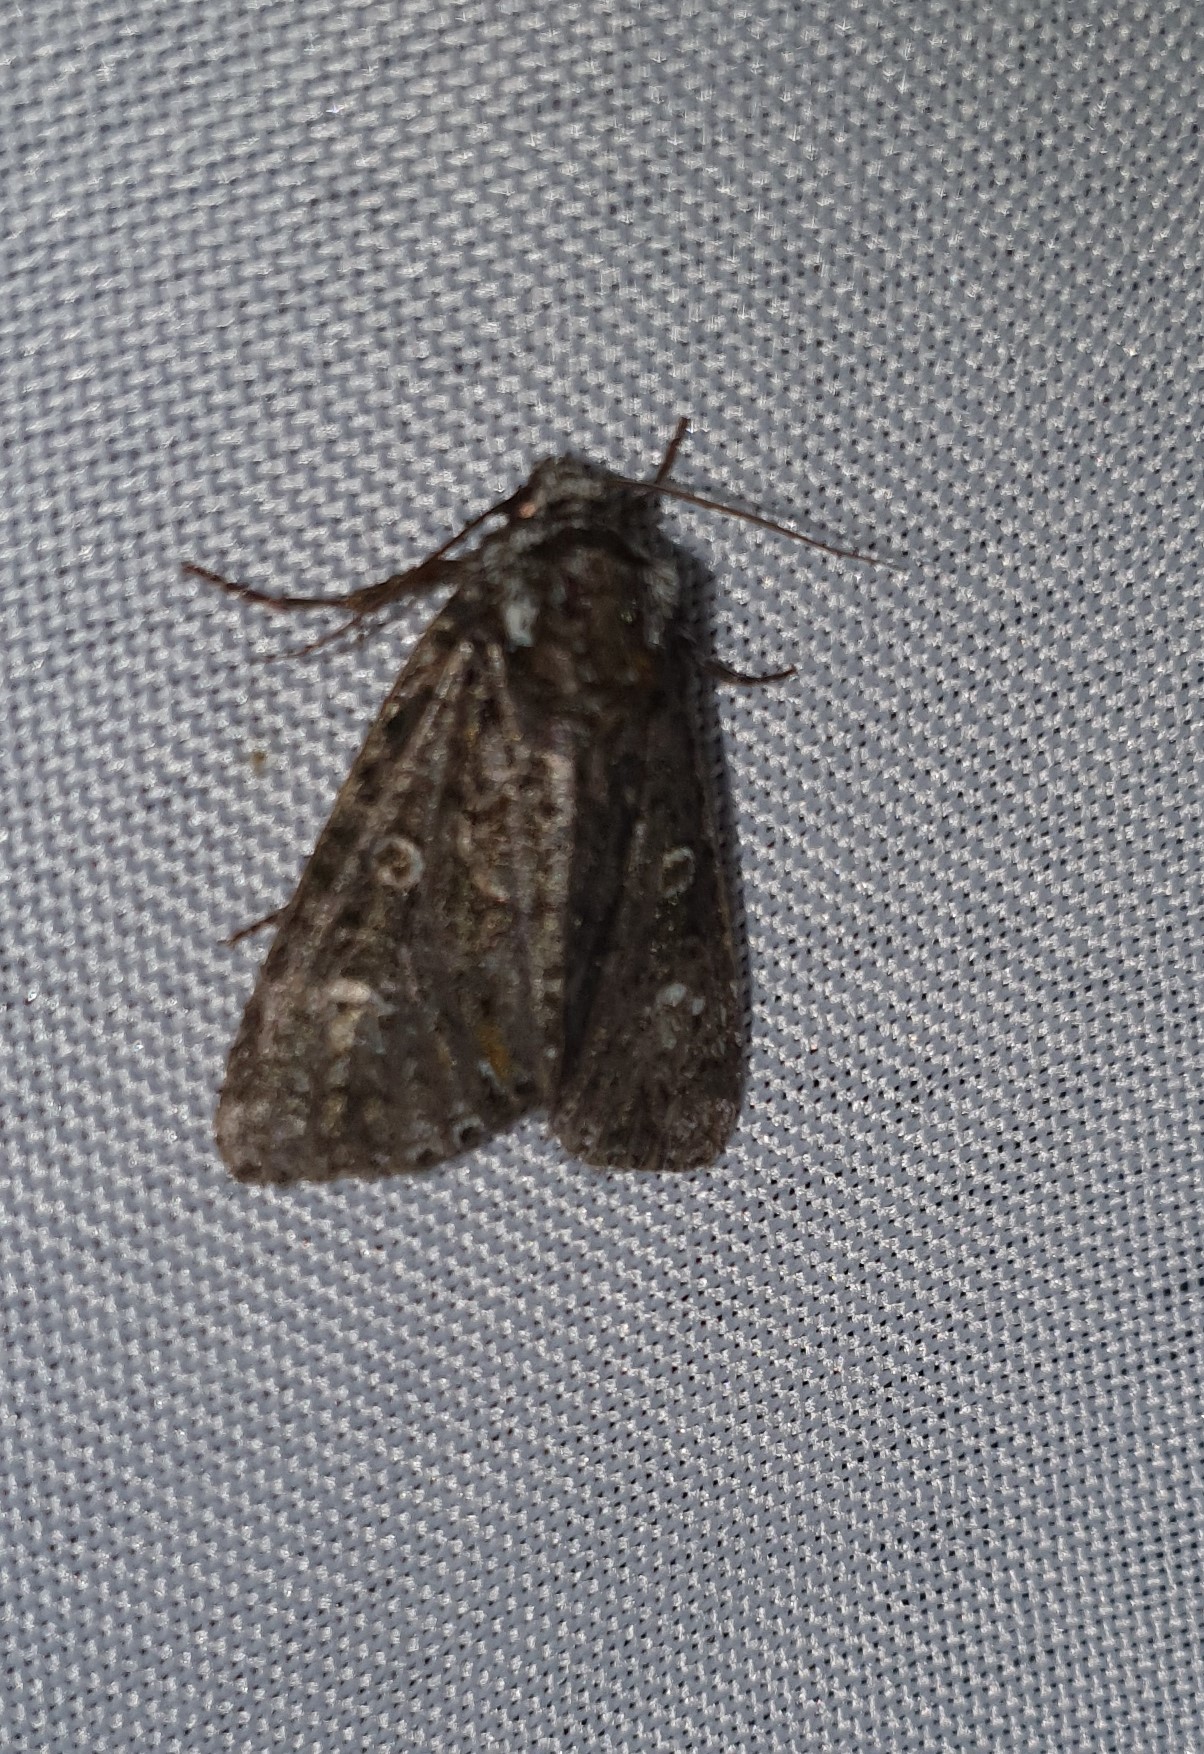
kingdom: Animalia
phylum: Arthropoda
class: Insecta
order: Lepidoptera
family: Noctuidae
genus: Craniophora
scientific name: Craniophora ligustri
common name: Coronet
